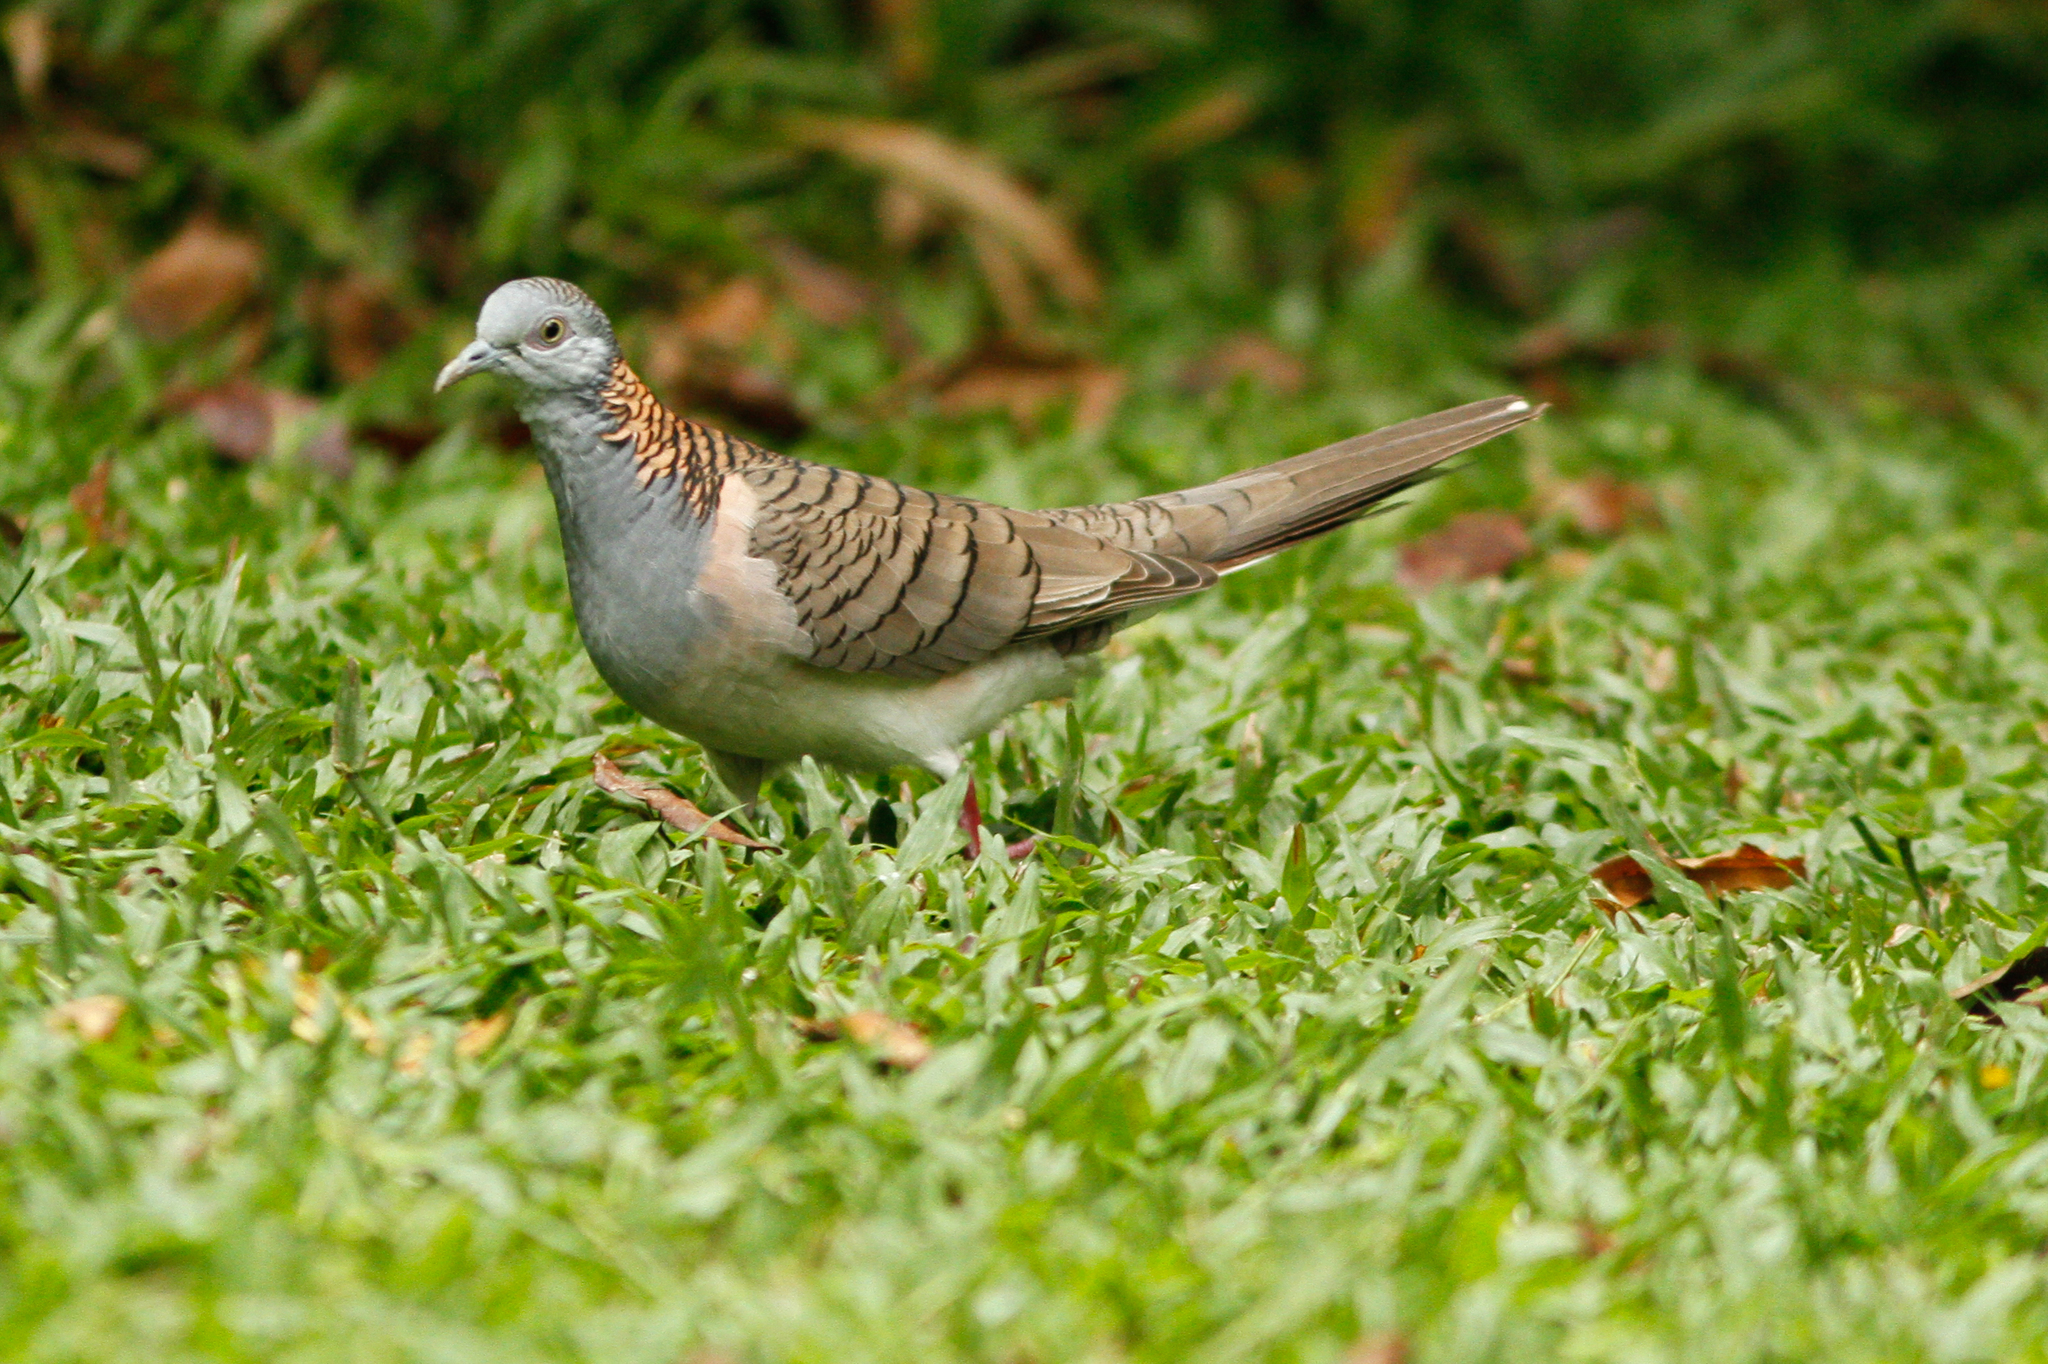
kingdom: Animalia
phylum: Chordata
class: Aves
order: Columbiformes
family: Columbidae
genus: Geopelia
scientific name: Geopelia humeralis
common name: Bar-shouldered dove
